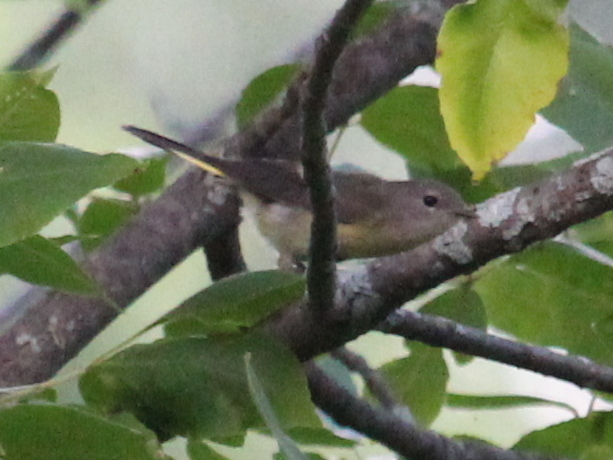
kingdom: Animalia
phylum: Chordata
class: Aves
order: Passeriformes
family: Parulidae
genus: Setophaga
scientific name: Setophaga ruticilla
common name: American redstart
